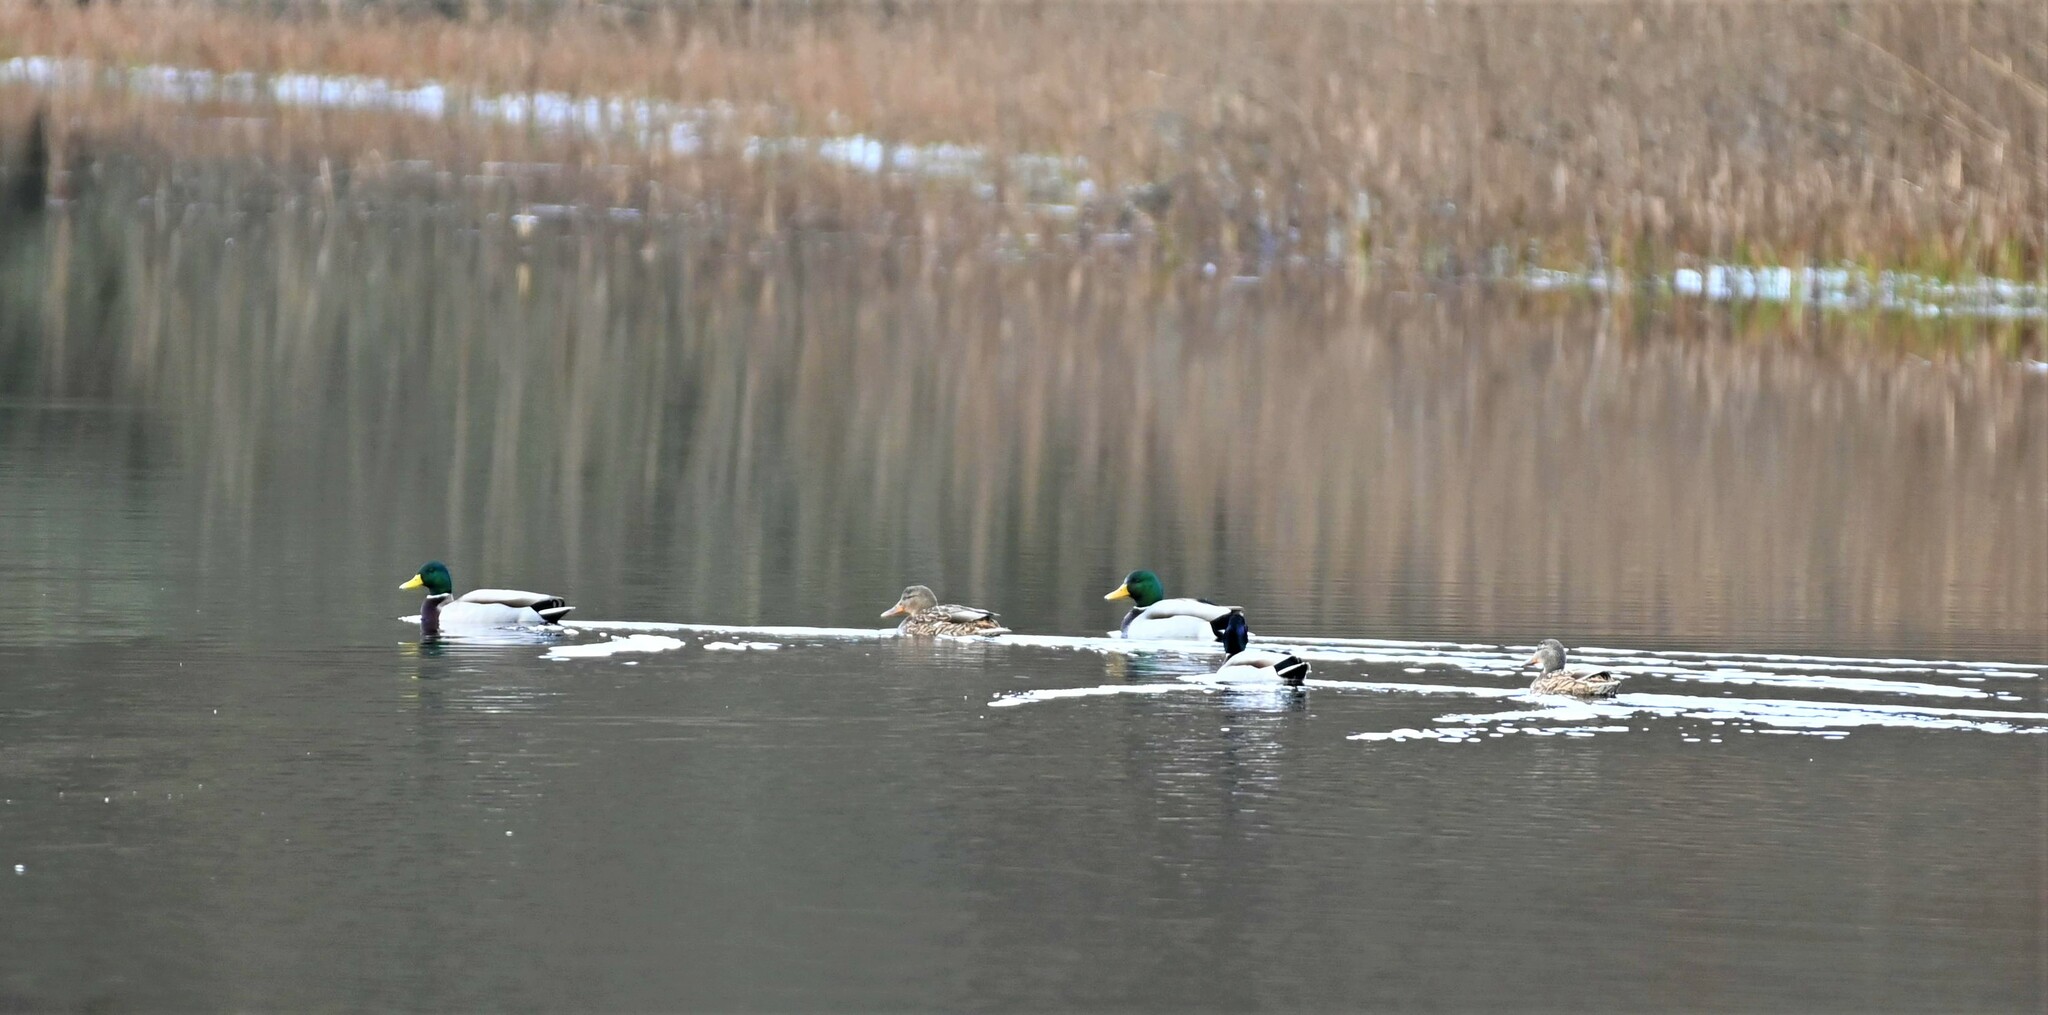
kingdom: Animalia
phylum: Chordata
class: Aves
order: Anseriformes
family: Anatidae
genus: Anas
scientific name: Anas platyrhynchos
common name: Mallard
